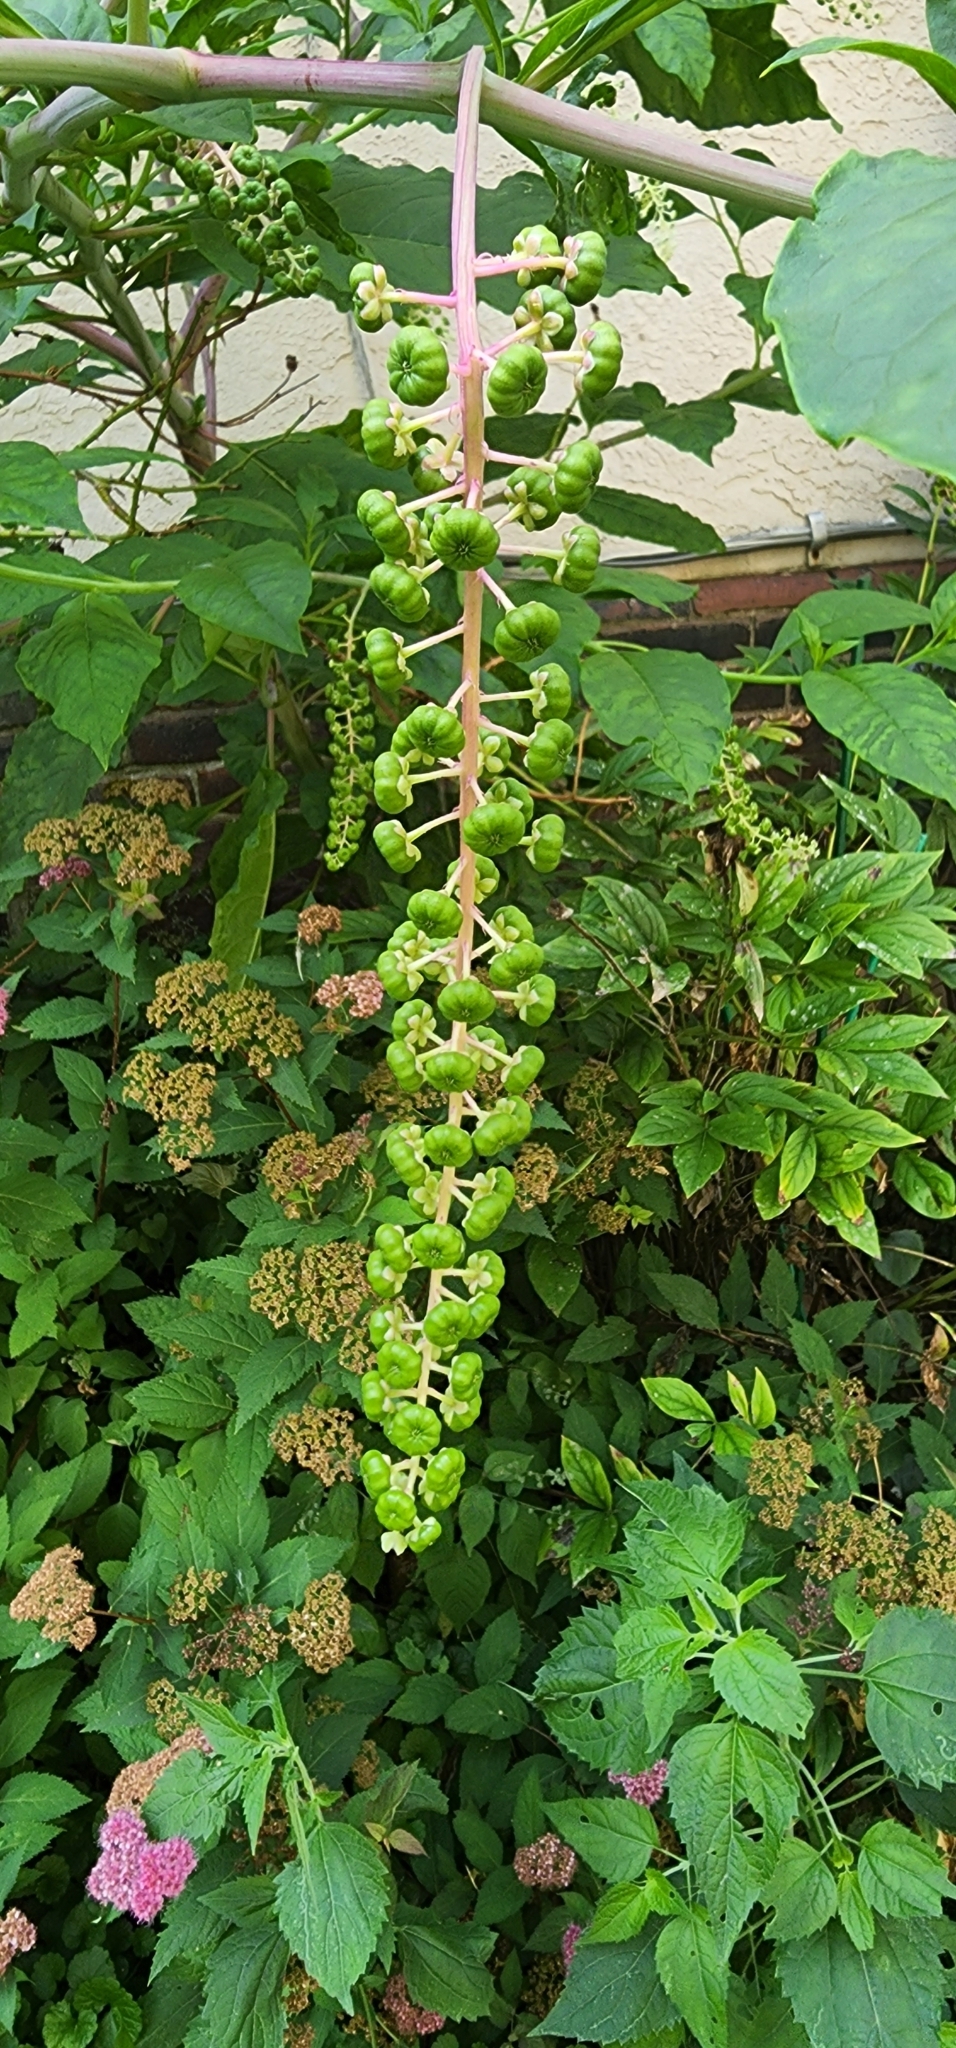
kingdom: Plantae
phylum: Tracheophyta
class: Magnoliopsida
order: Caryophyllales
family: Phytolaccaceae
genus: Phytolacca
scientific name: Phytolacca americana
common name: American pokeweed
